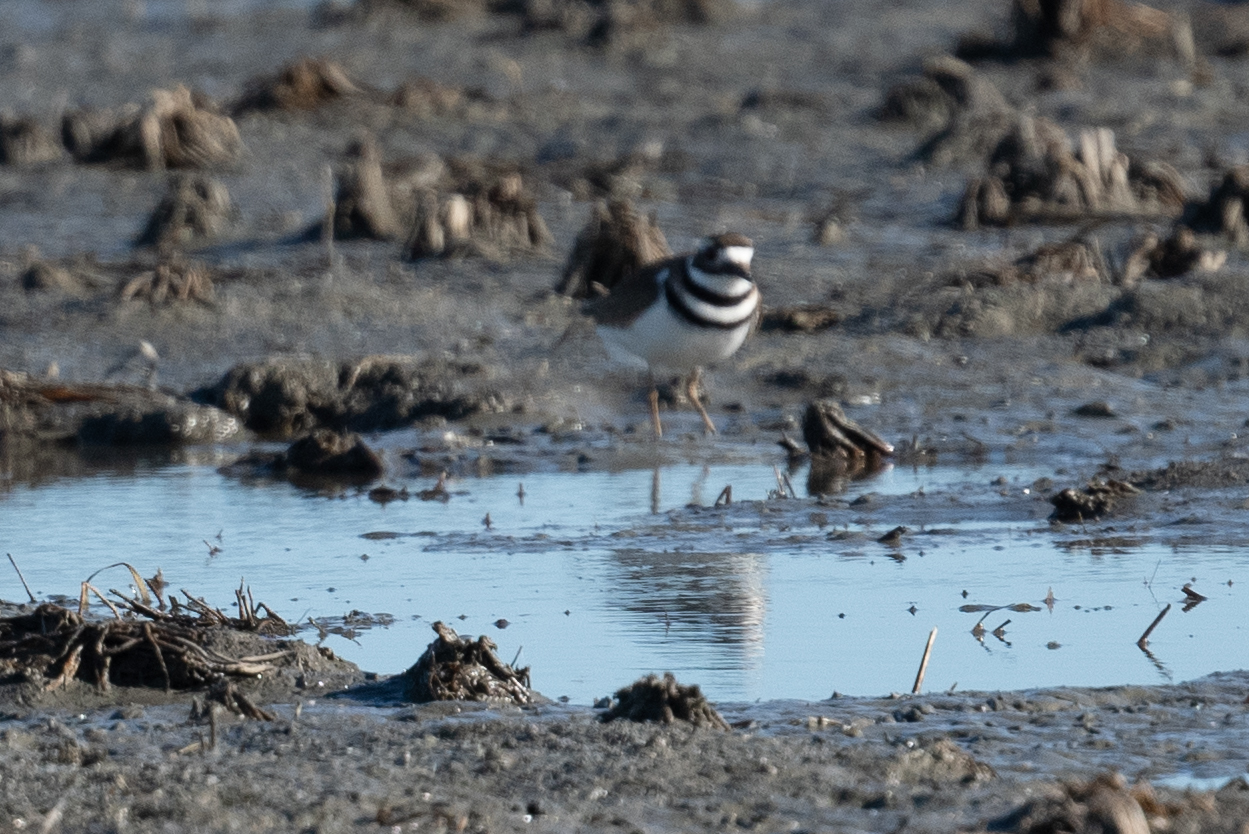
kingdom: Animalia
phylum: Chordata
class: Aves
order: Charadriiformes
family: Charadriidae
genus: Charadrius
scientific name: Charadrius vociferus
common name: Killdeer
